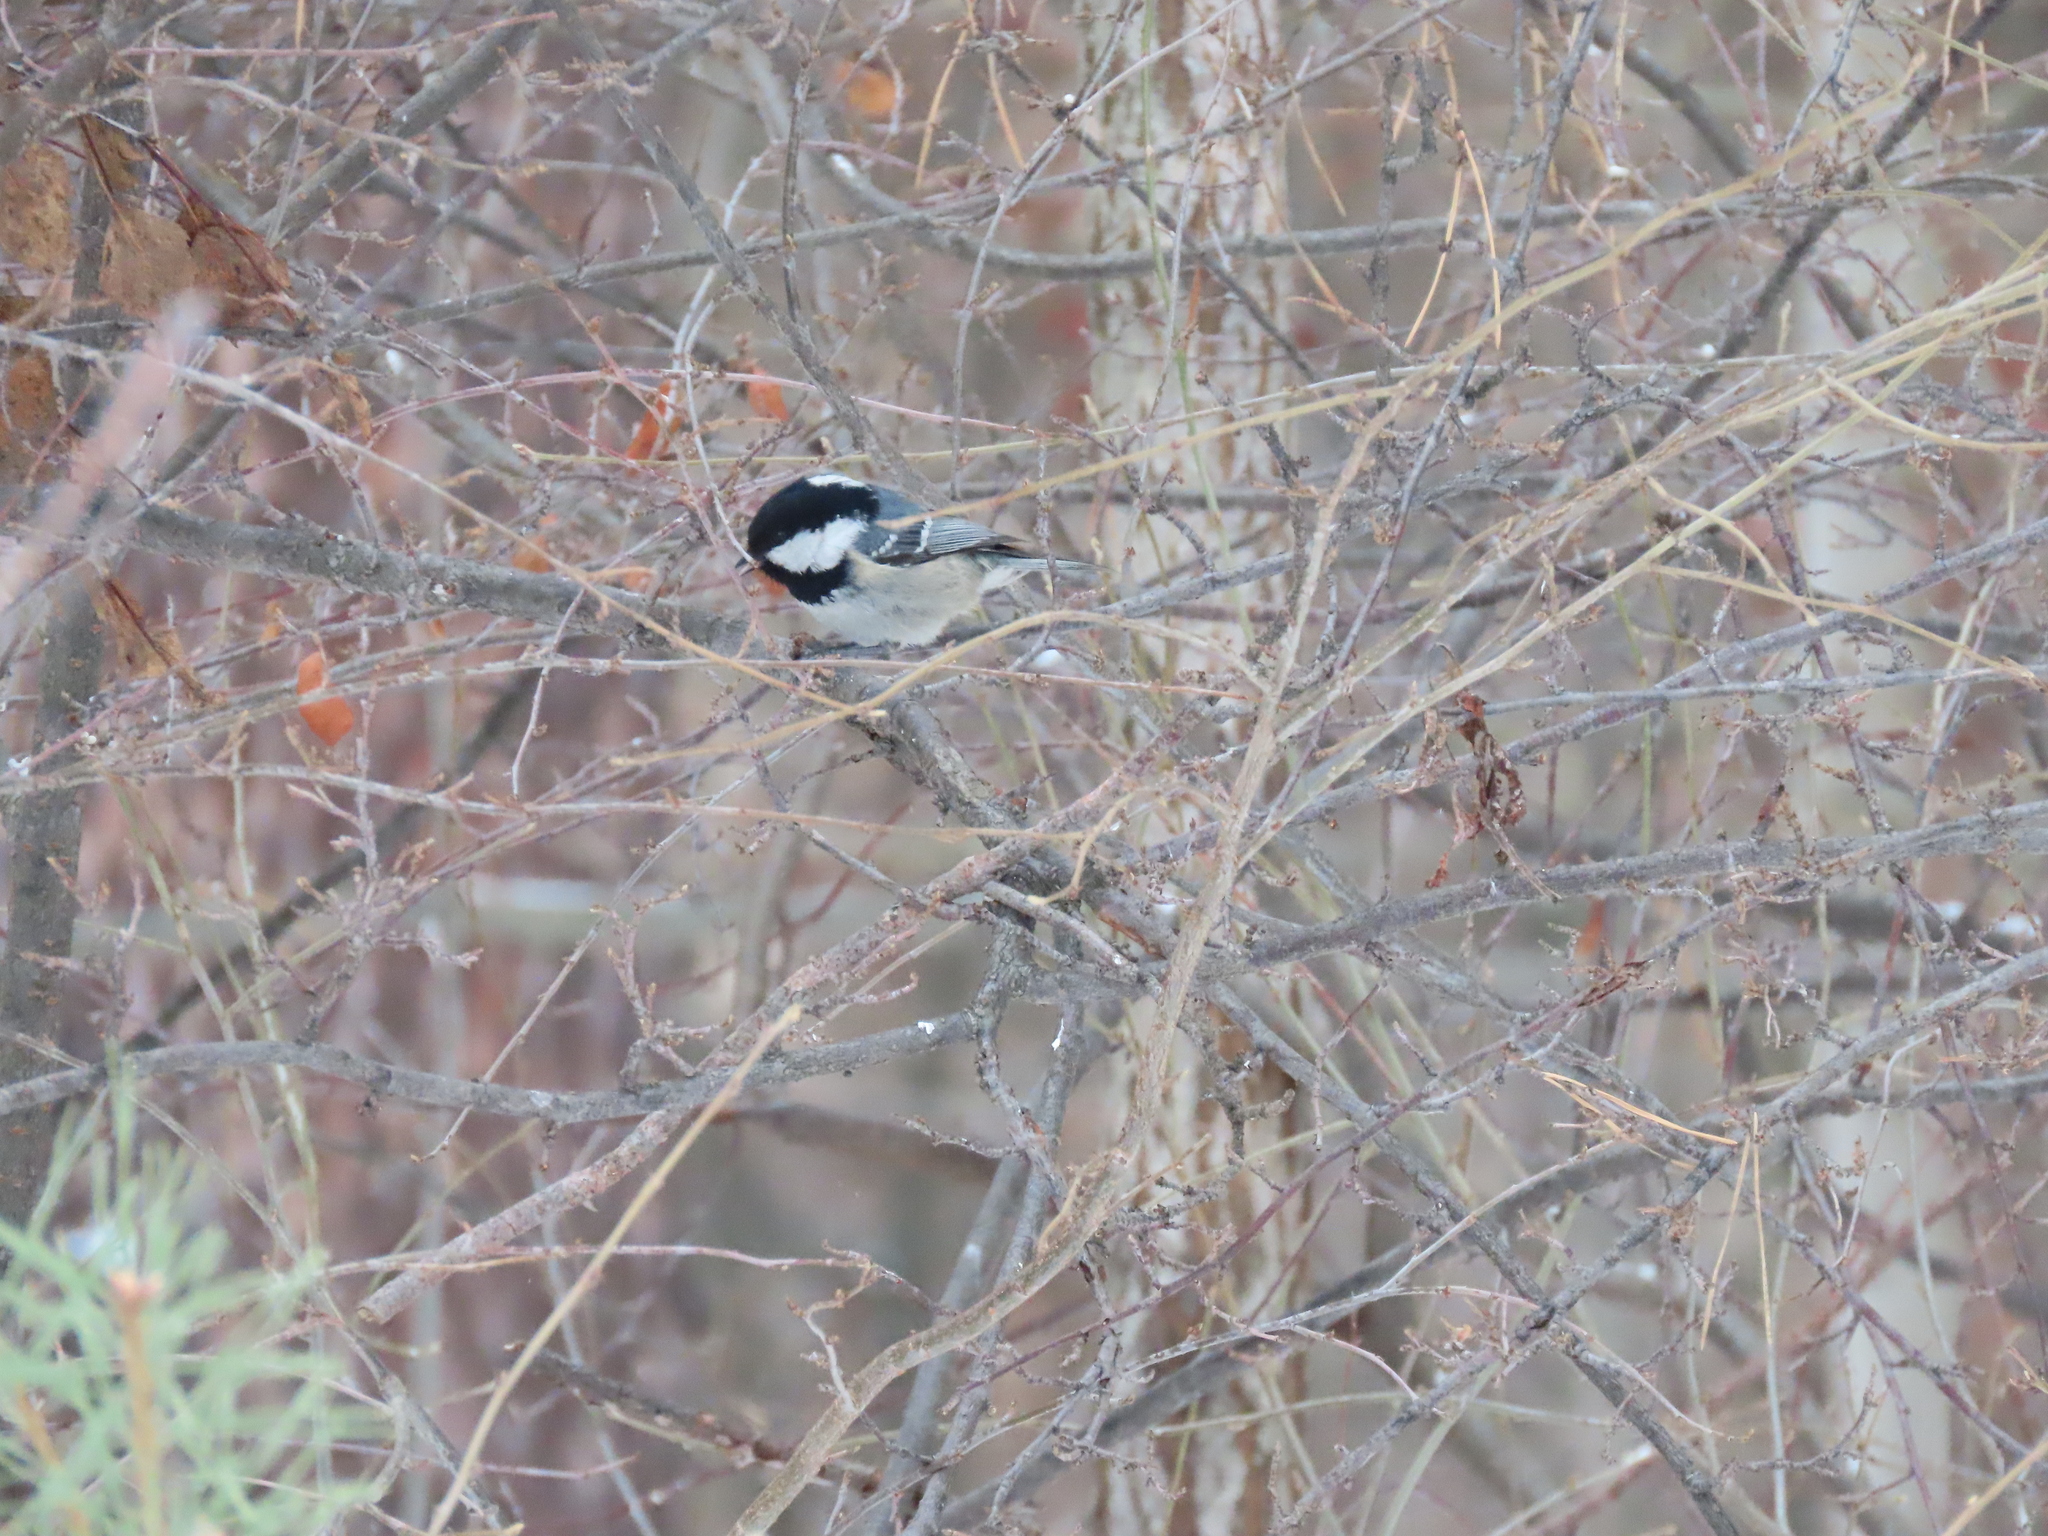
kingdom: Animalia
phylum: Chordata
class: Aves
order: Passeriformes
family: Paridae
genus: Periparus
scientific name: Periparus ater
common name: Coal tit
